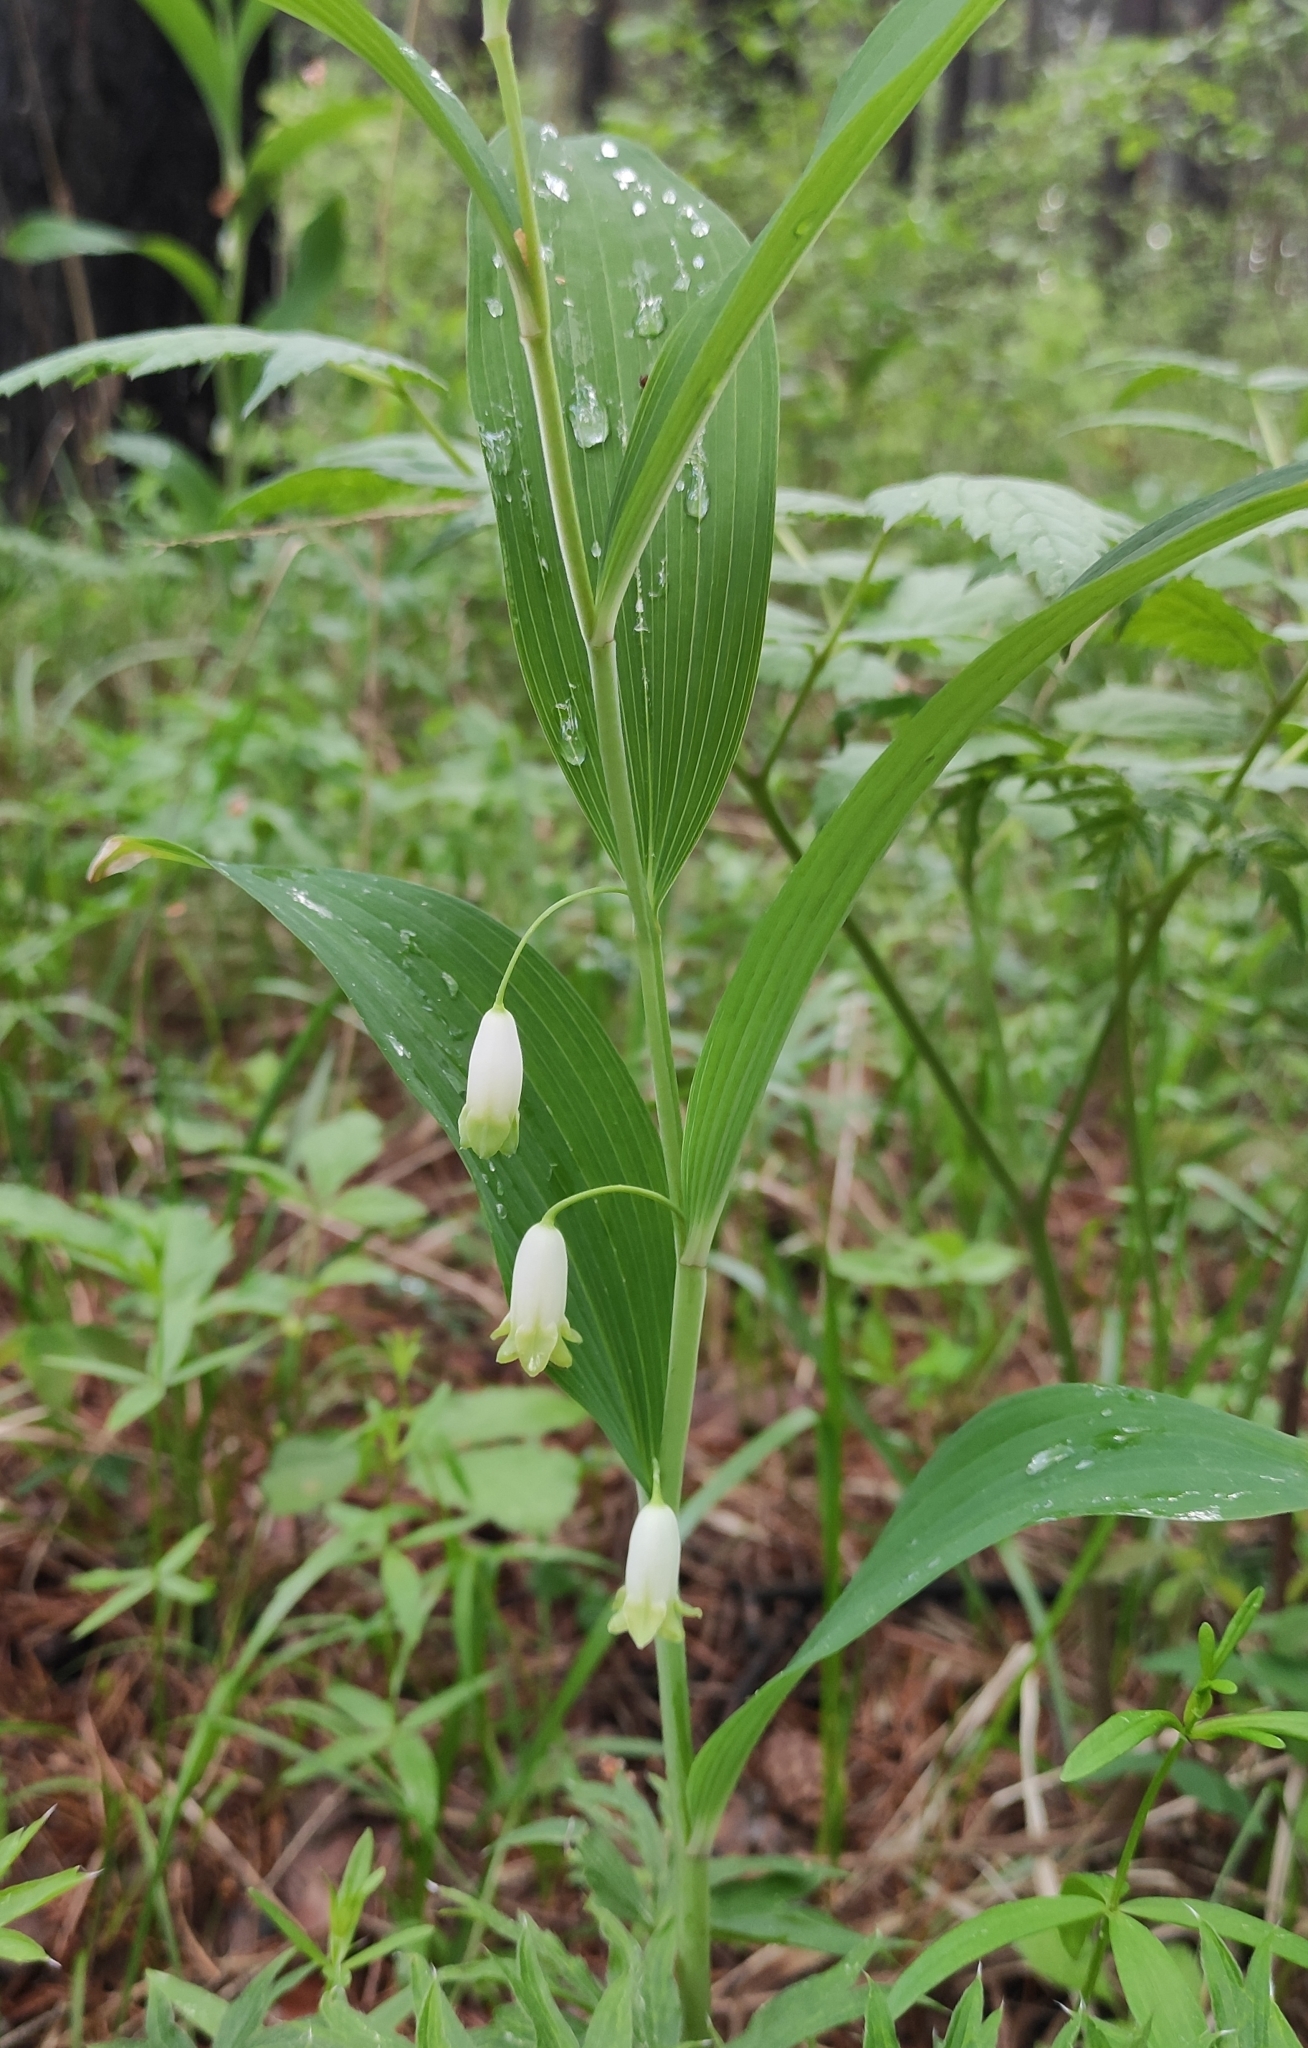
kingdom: Plantae
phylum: Tracheophyta
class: Liliopsida
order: Asparagales
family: Asparagaceae
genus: Polygonatum
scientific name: Polygonatum odoratum
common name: Angular solomon's-seal
